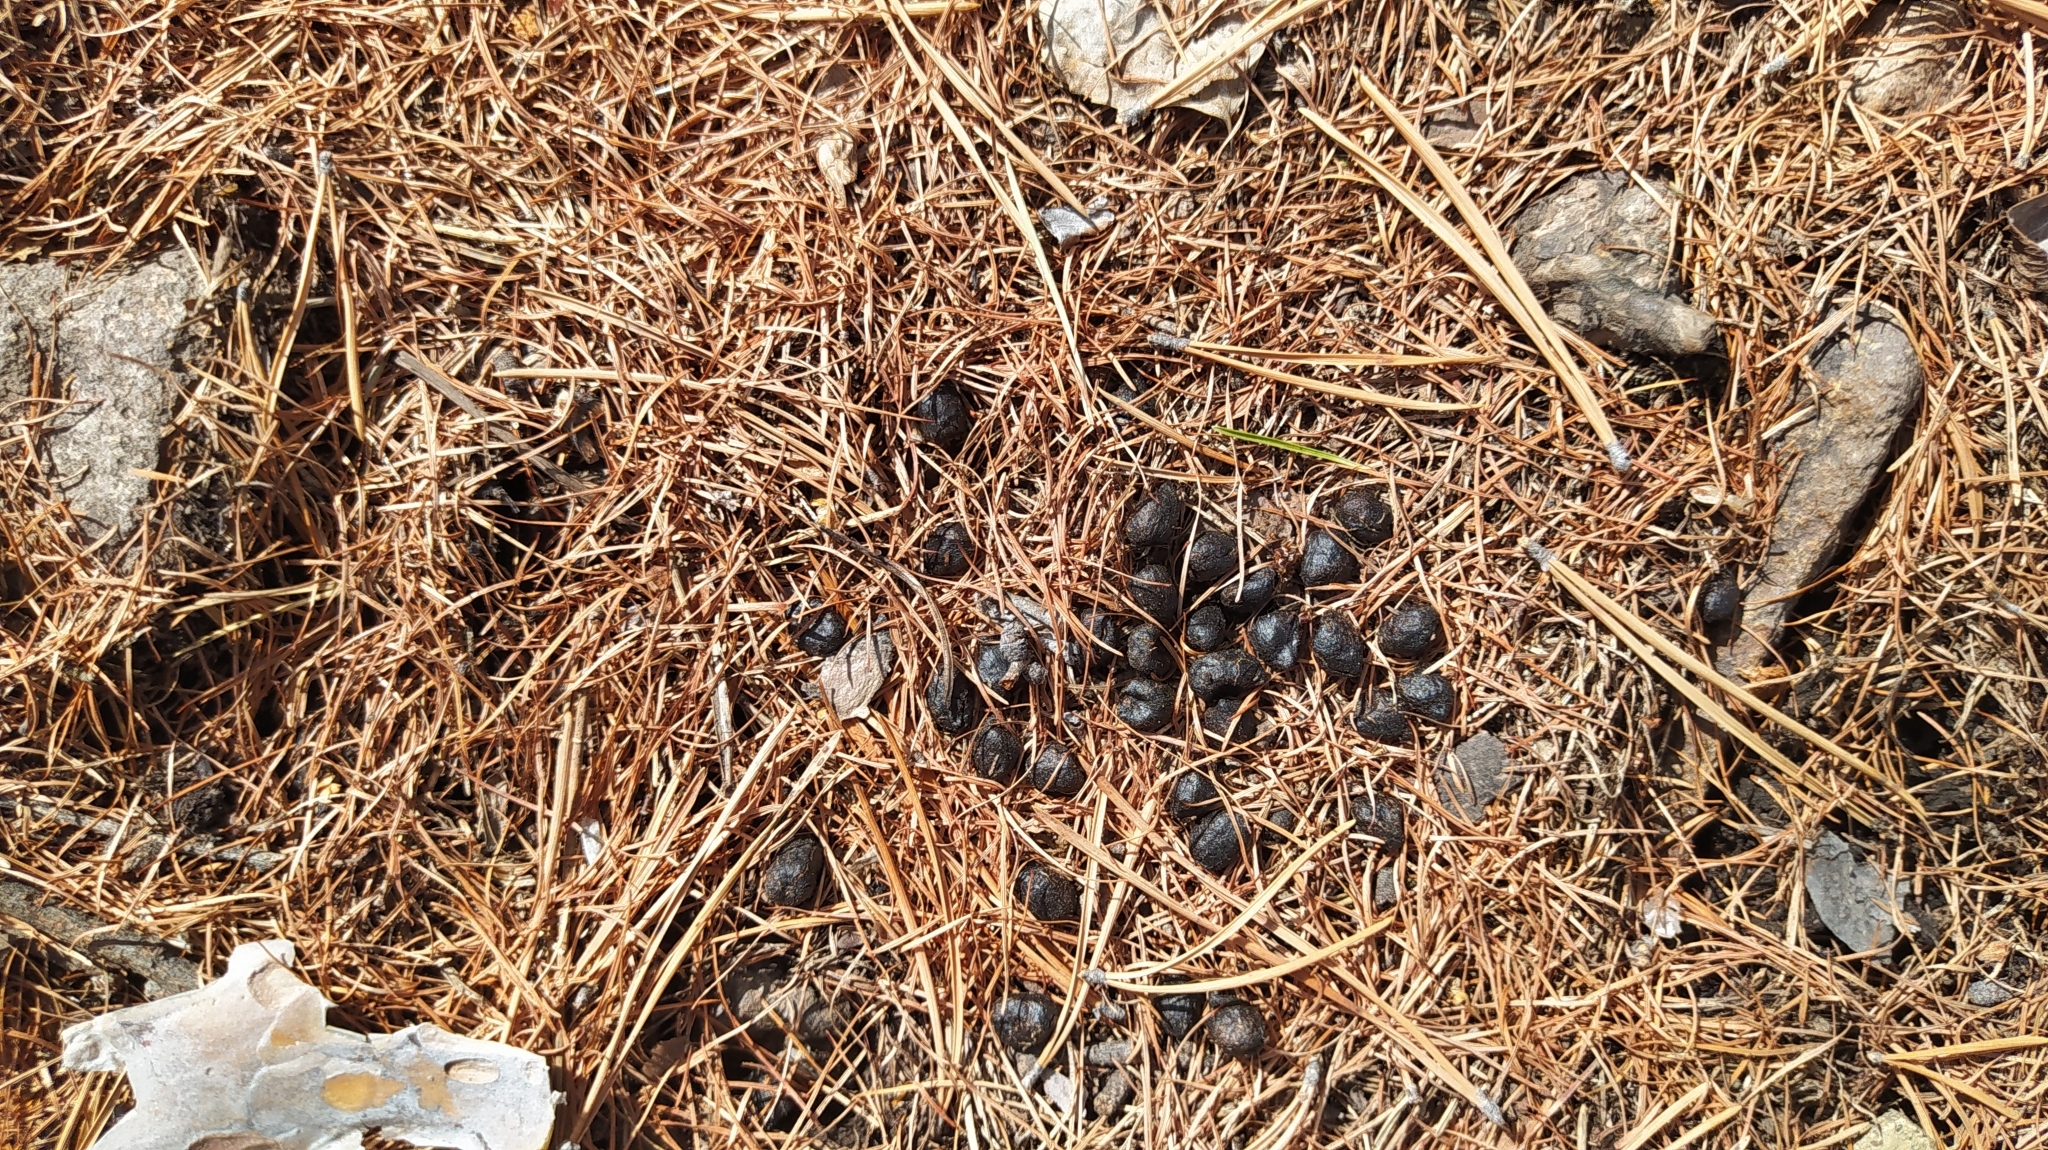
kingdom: Animalia
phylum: Chordata
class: Mammalia
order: Artiodactyla
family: Moschidae
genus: Moschus
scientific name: Moschus moschiferus
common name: Siberian musk deer
